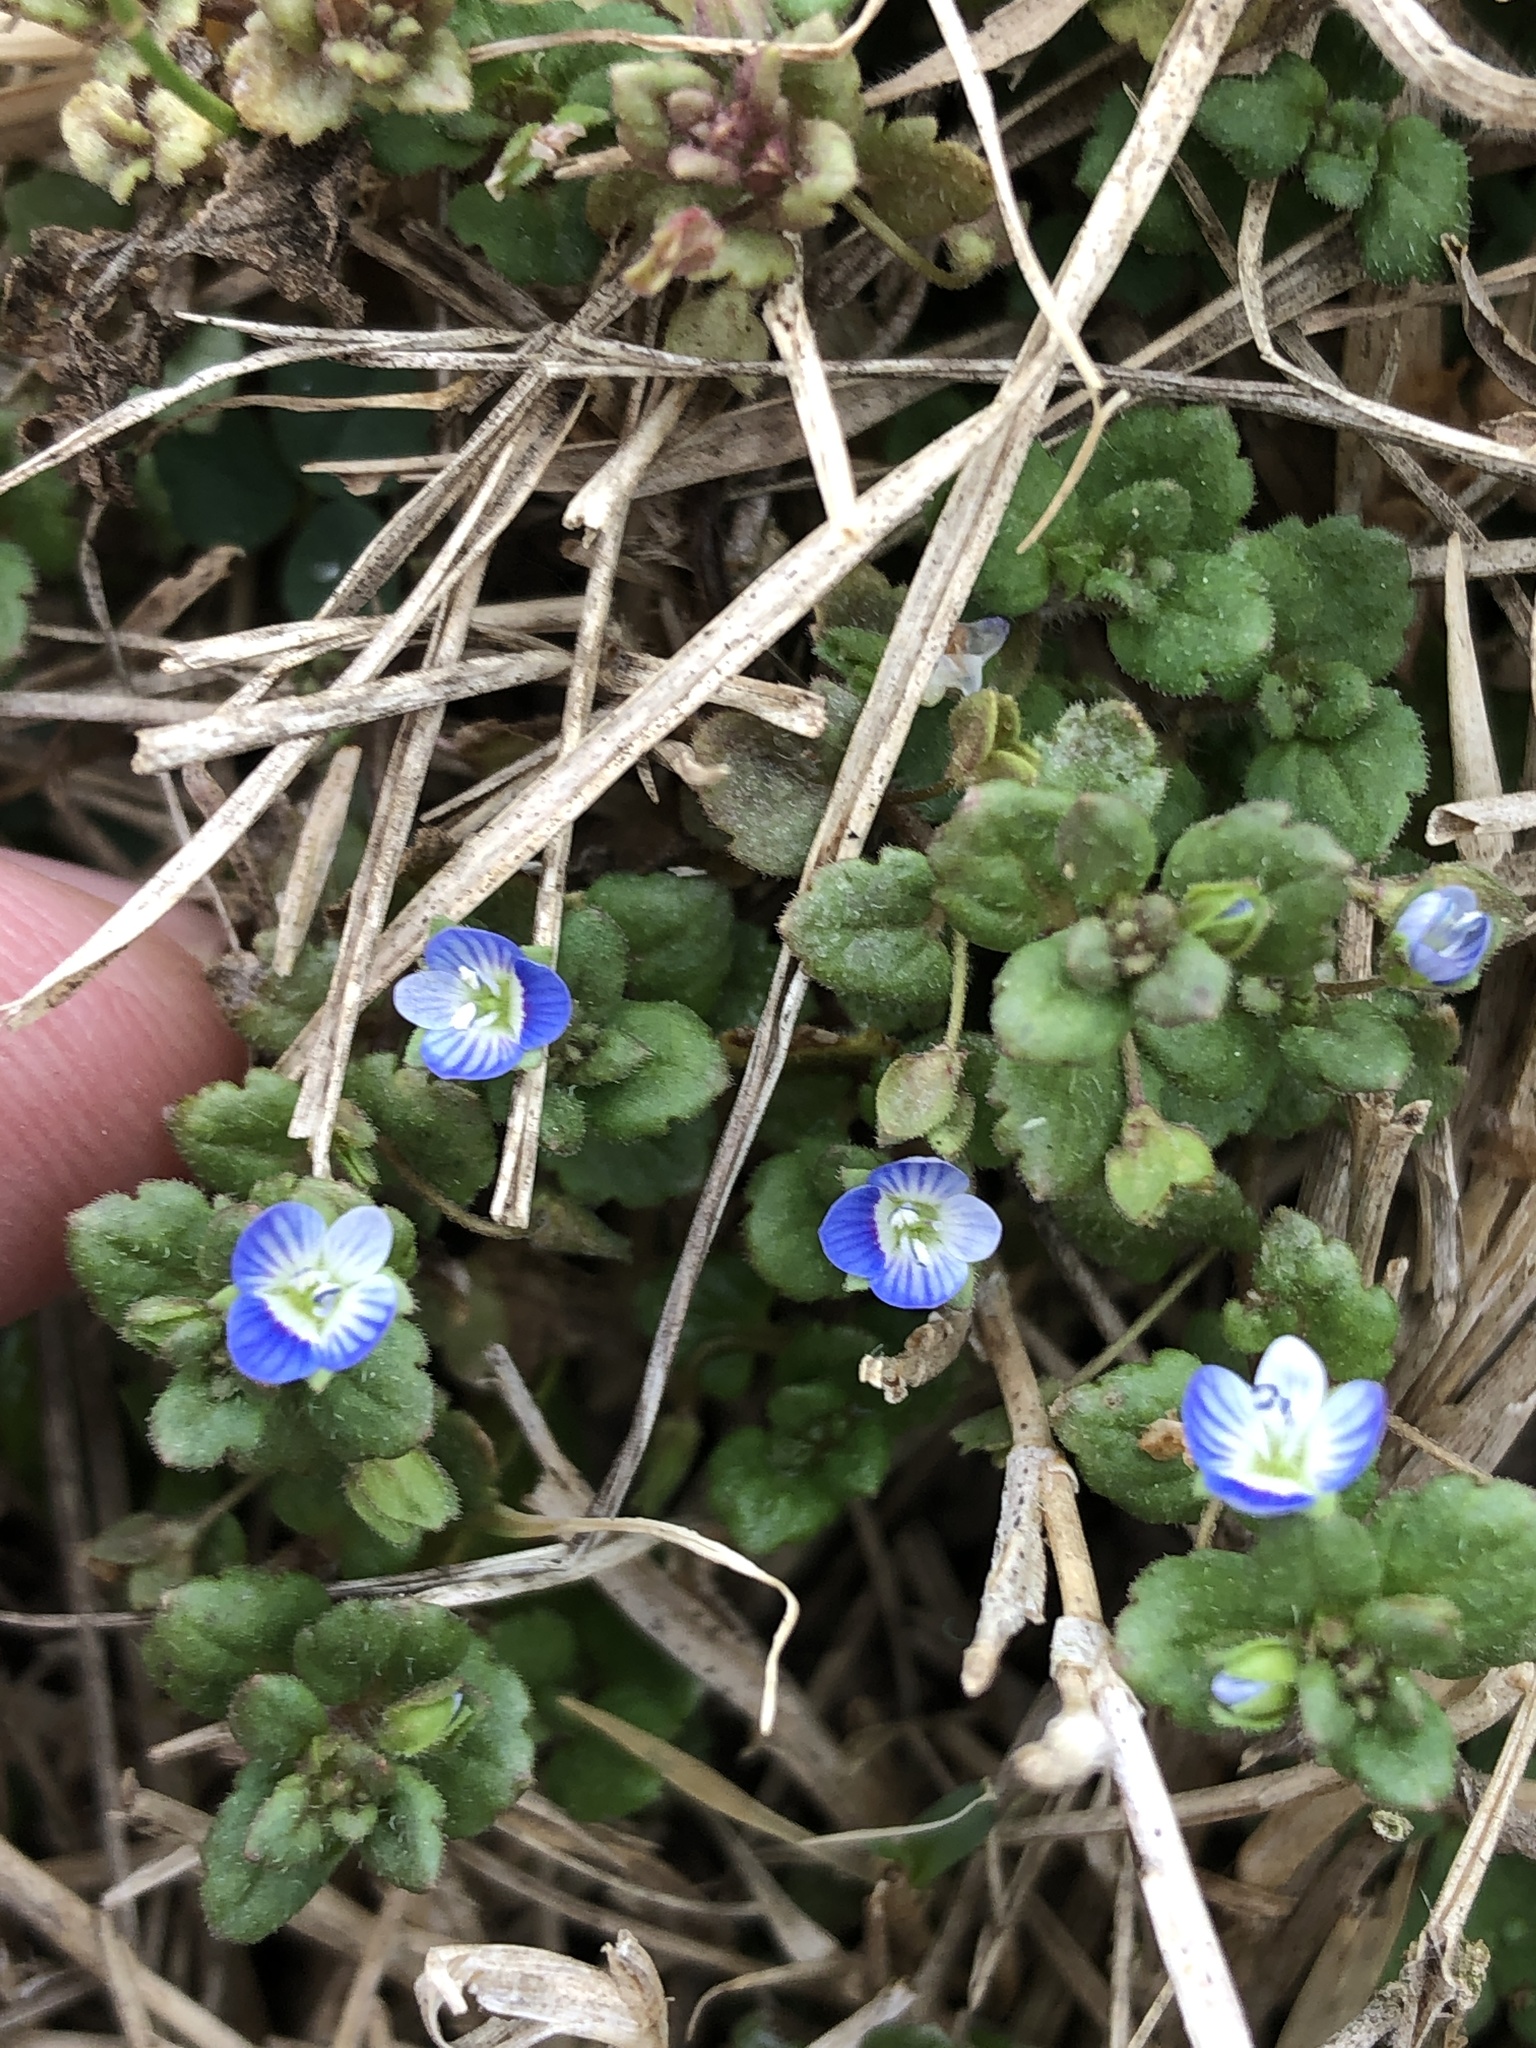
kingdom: Plantae
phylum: Tracheophyta
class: Magnoliopsida
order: Lamiales
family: Plantaginaceae
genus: Veronica
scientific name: Veronica polita
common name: Grey field-speedwell
